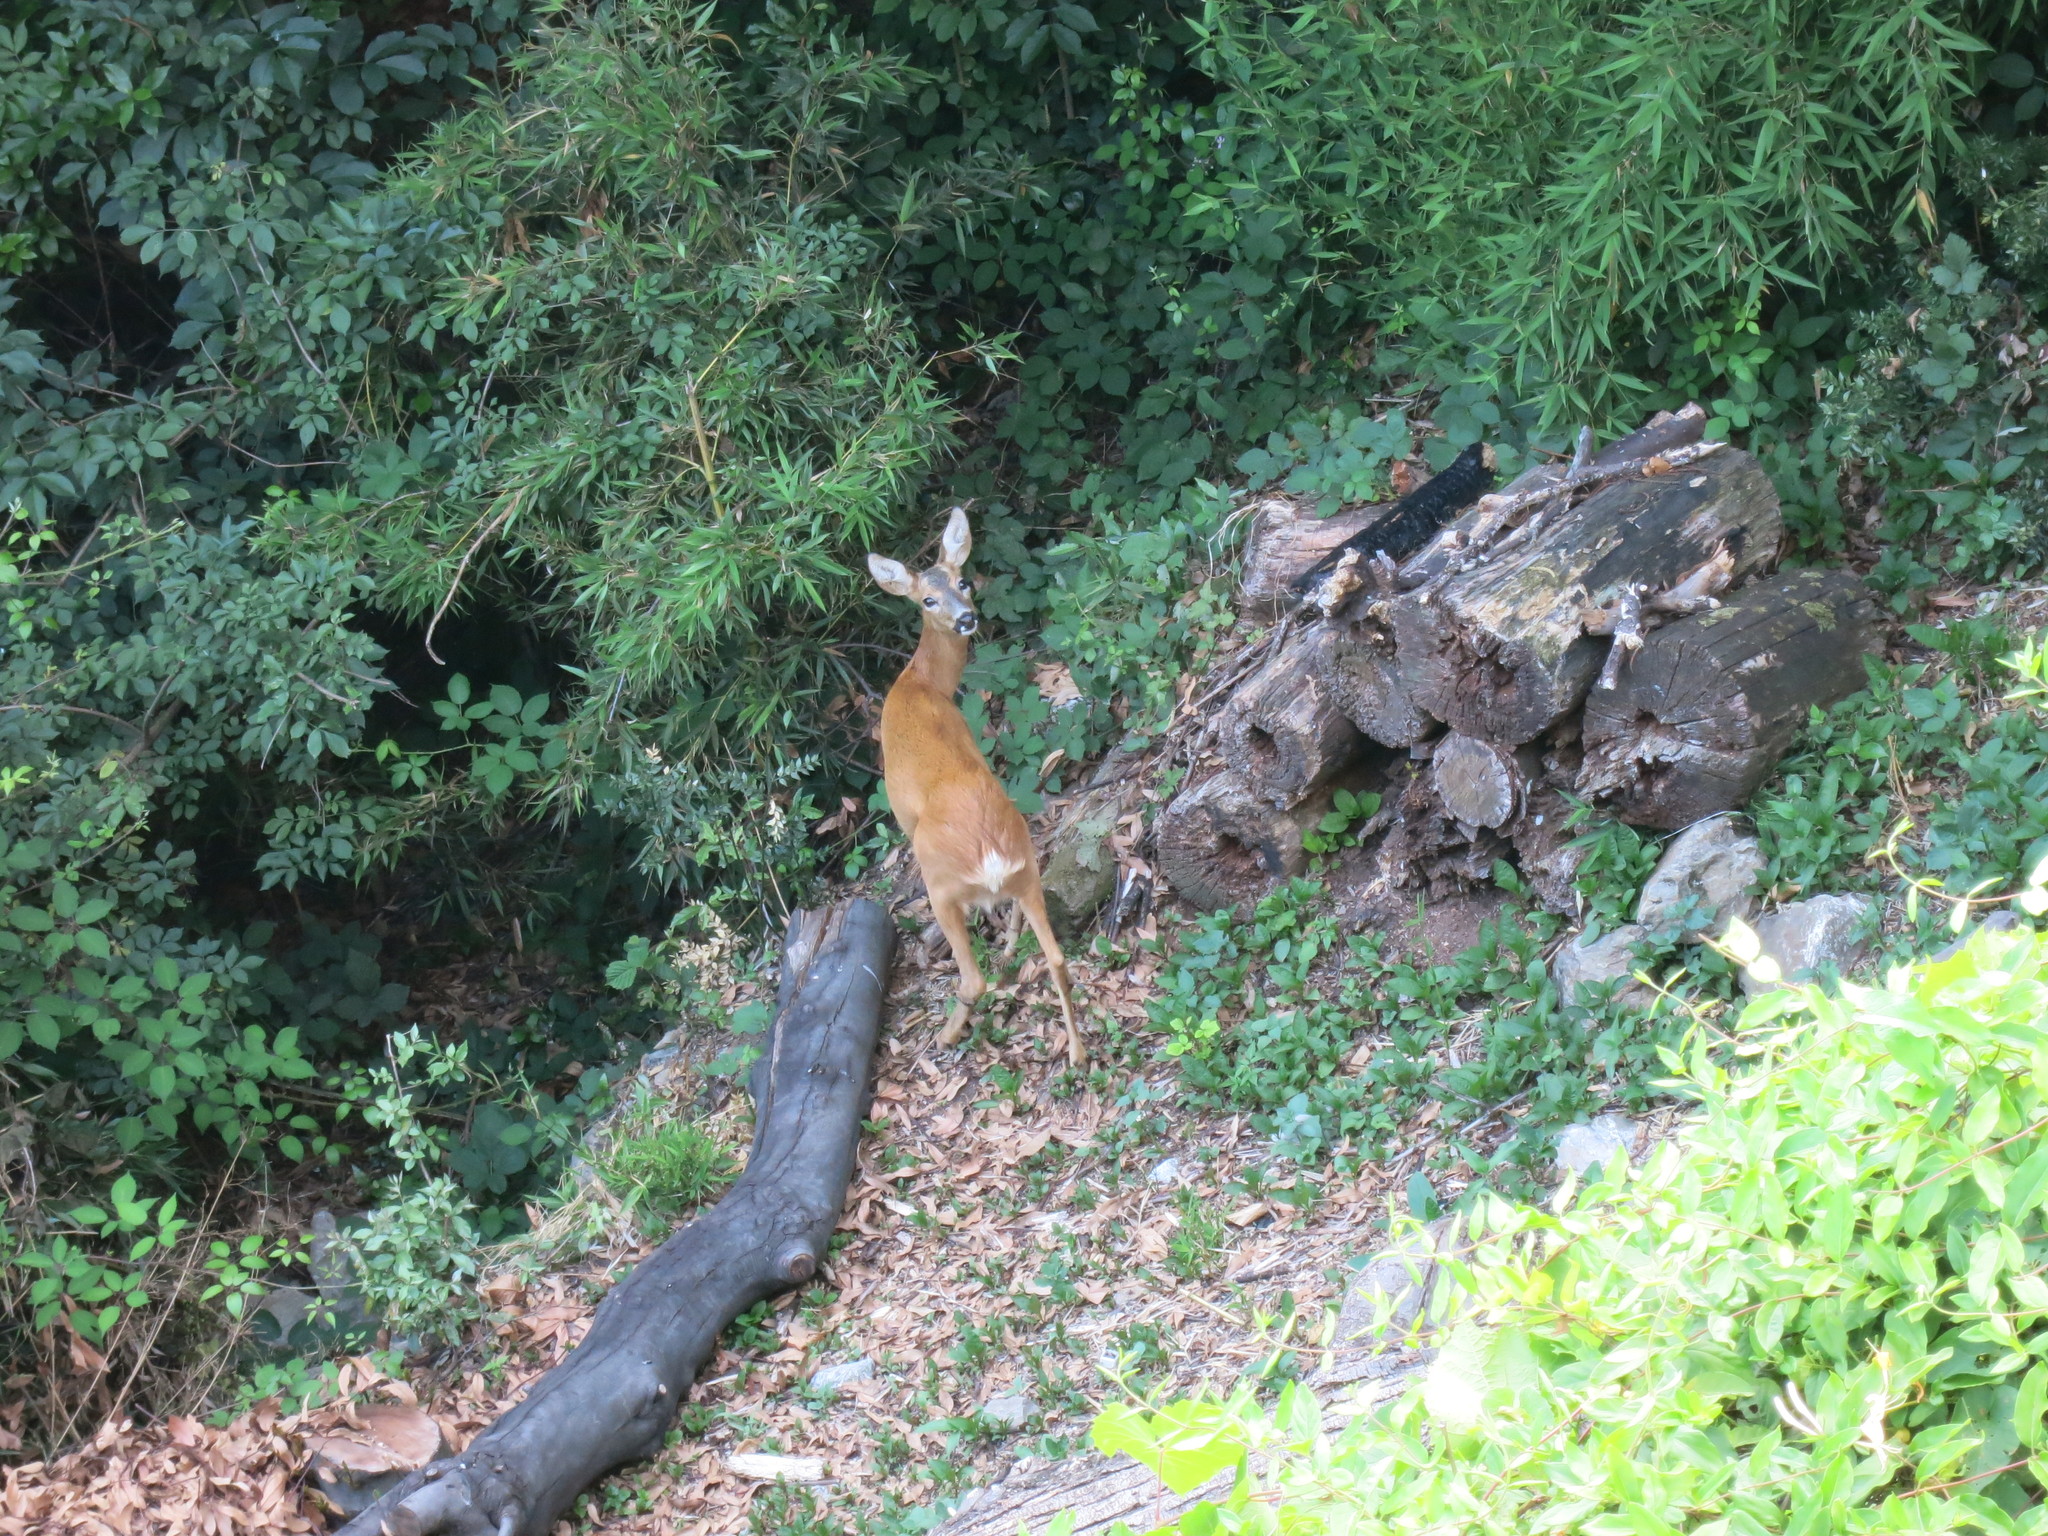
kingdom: Animalia
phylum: Chordata
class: Mammalia
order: Artiodactyla
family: Cervidae
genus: Capreolus
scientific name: Capreolus capreolus
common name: Western roe deer
